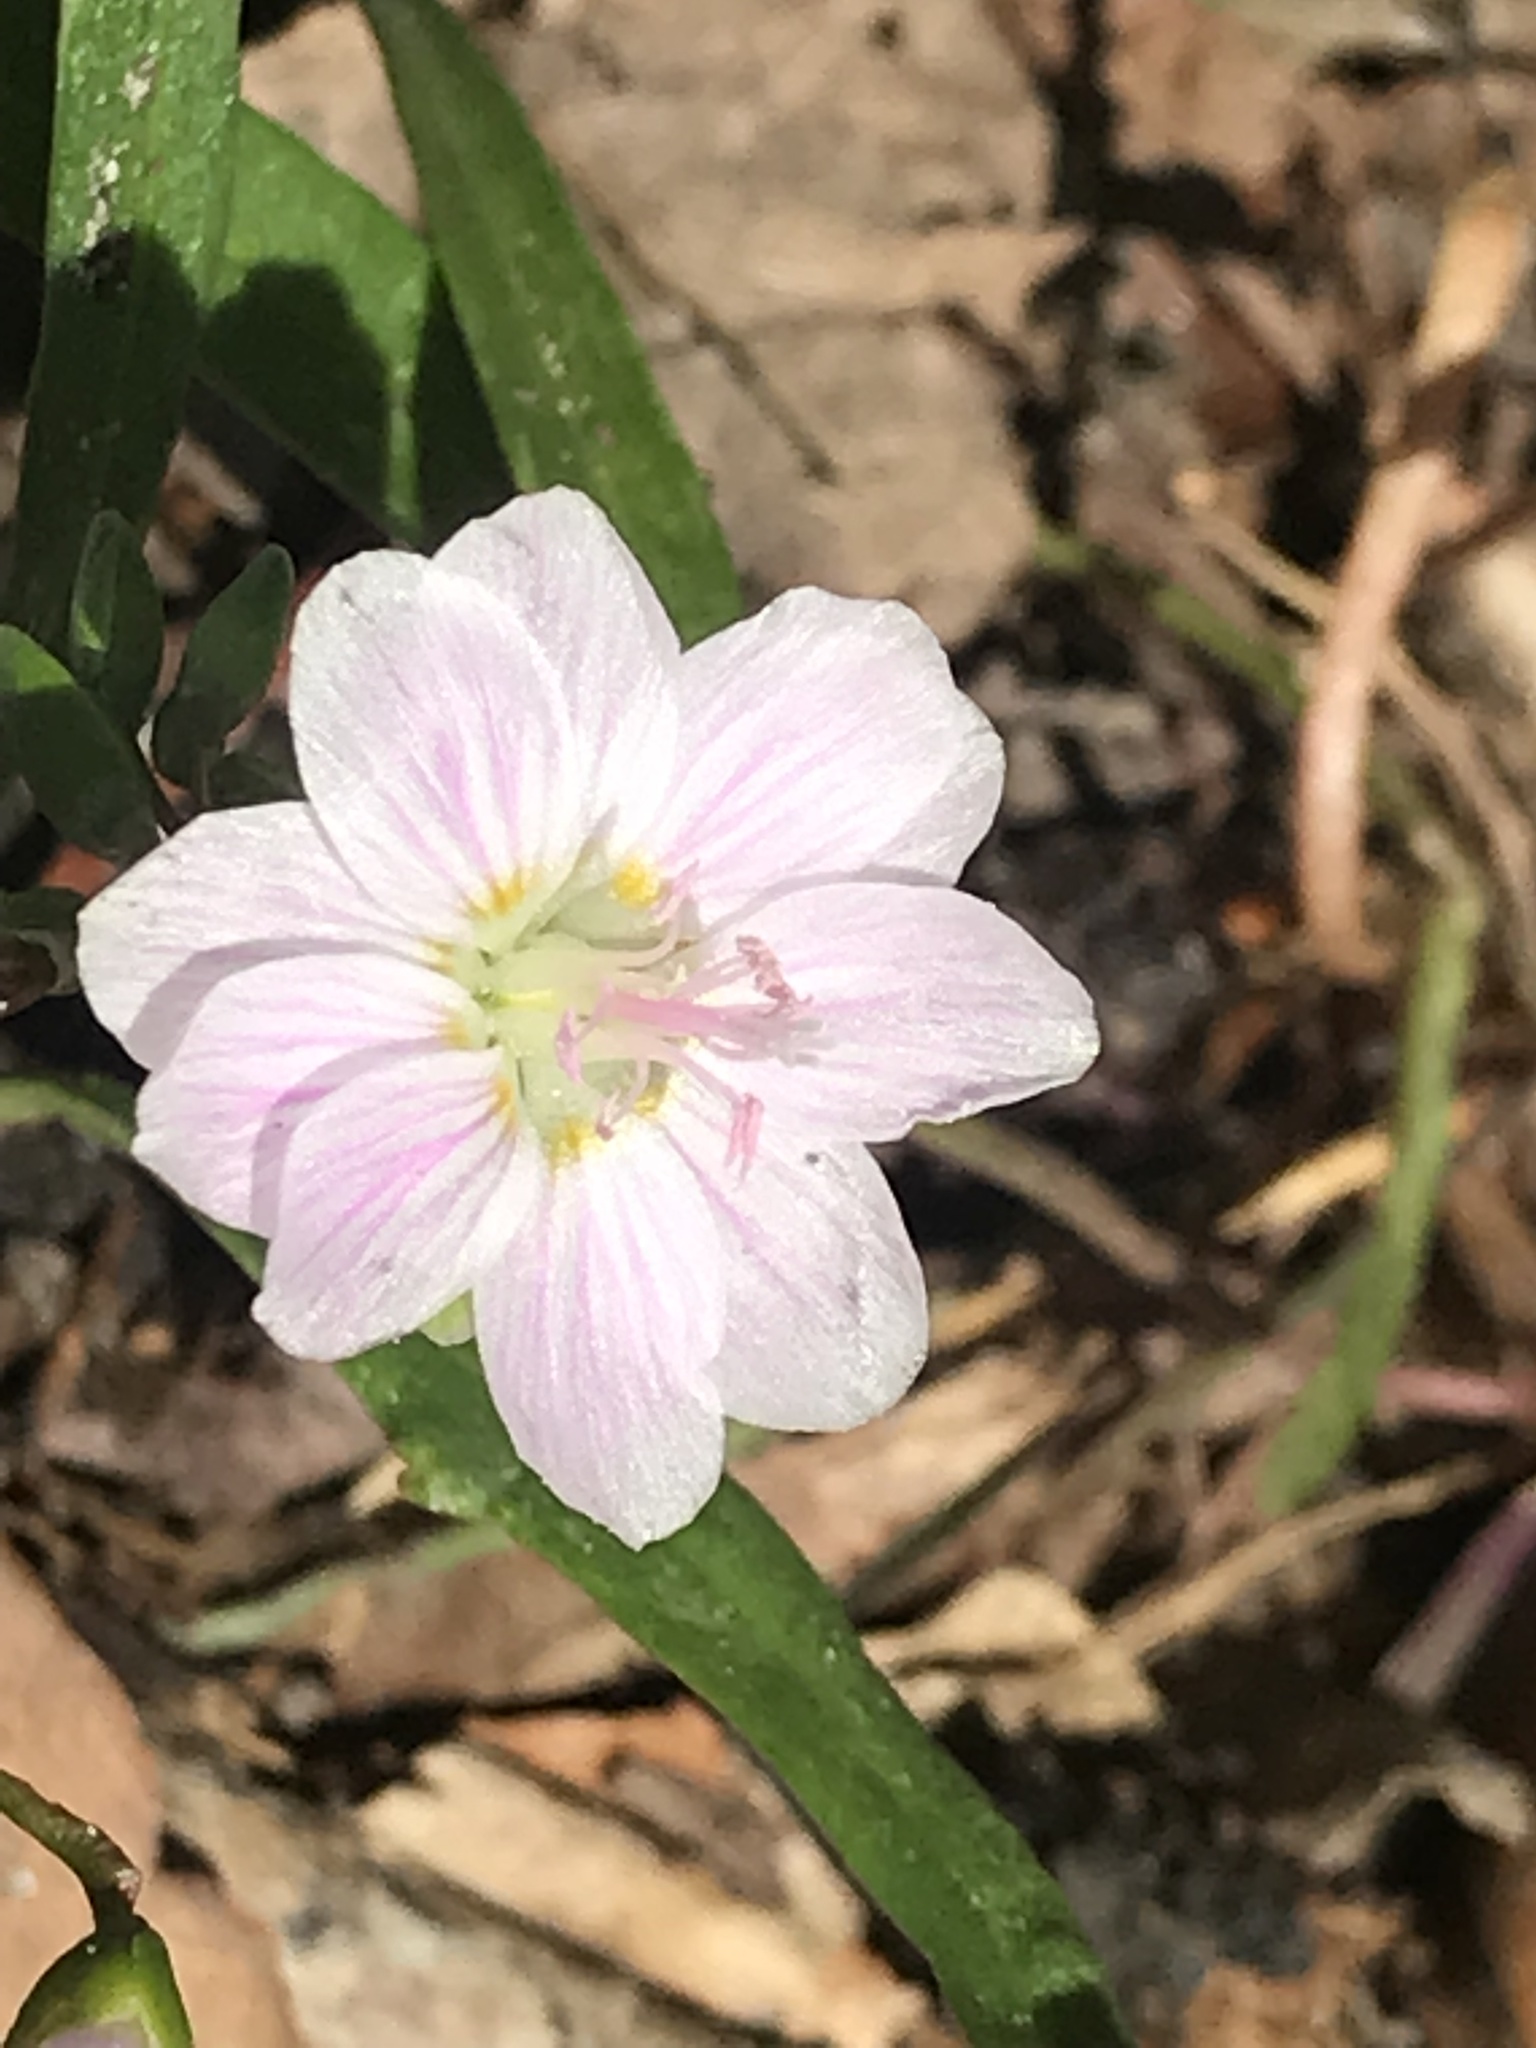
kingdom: Plantae
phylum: Tracheophyta
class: Magnoliopsida
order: Caryophyllales
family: Montiaceae
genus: Claytonia
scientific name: Claytonia virginica
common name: Virginia springbeauty
